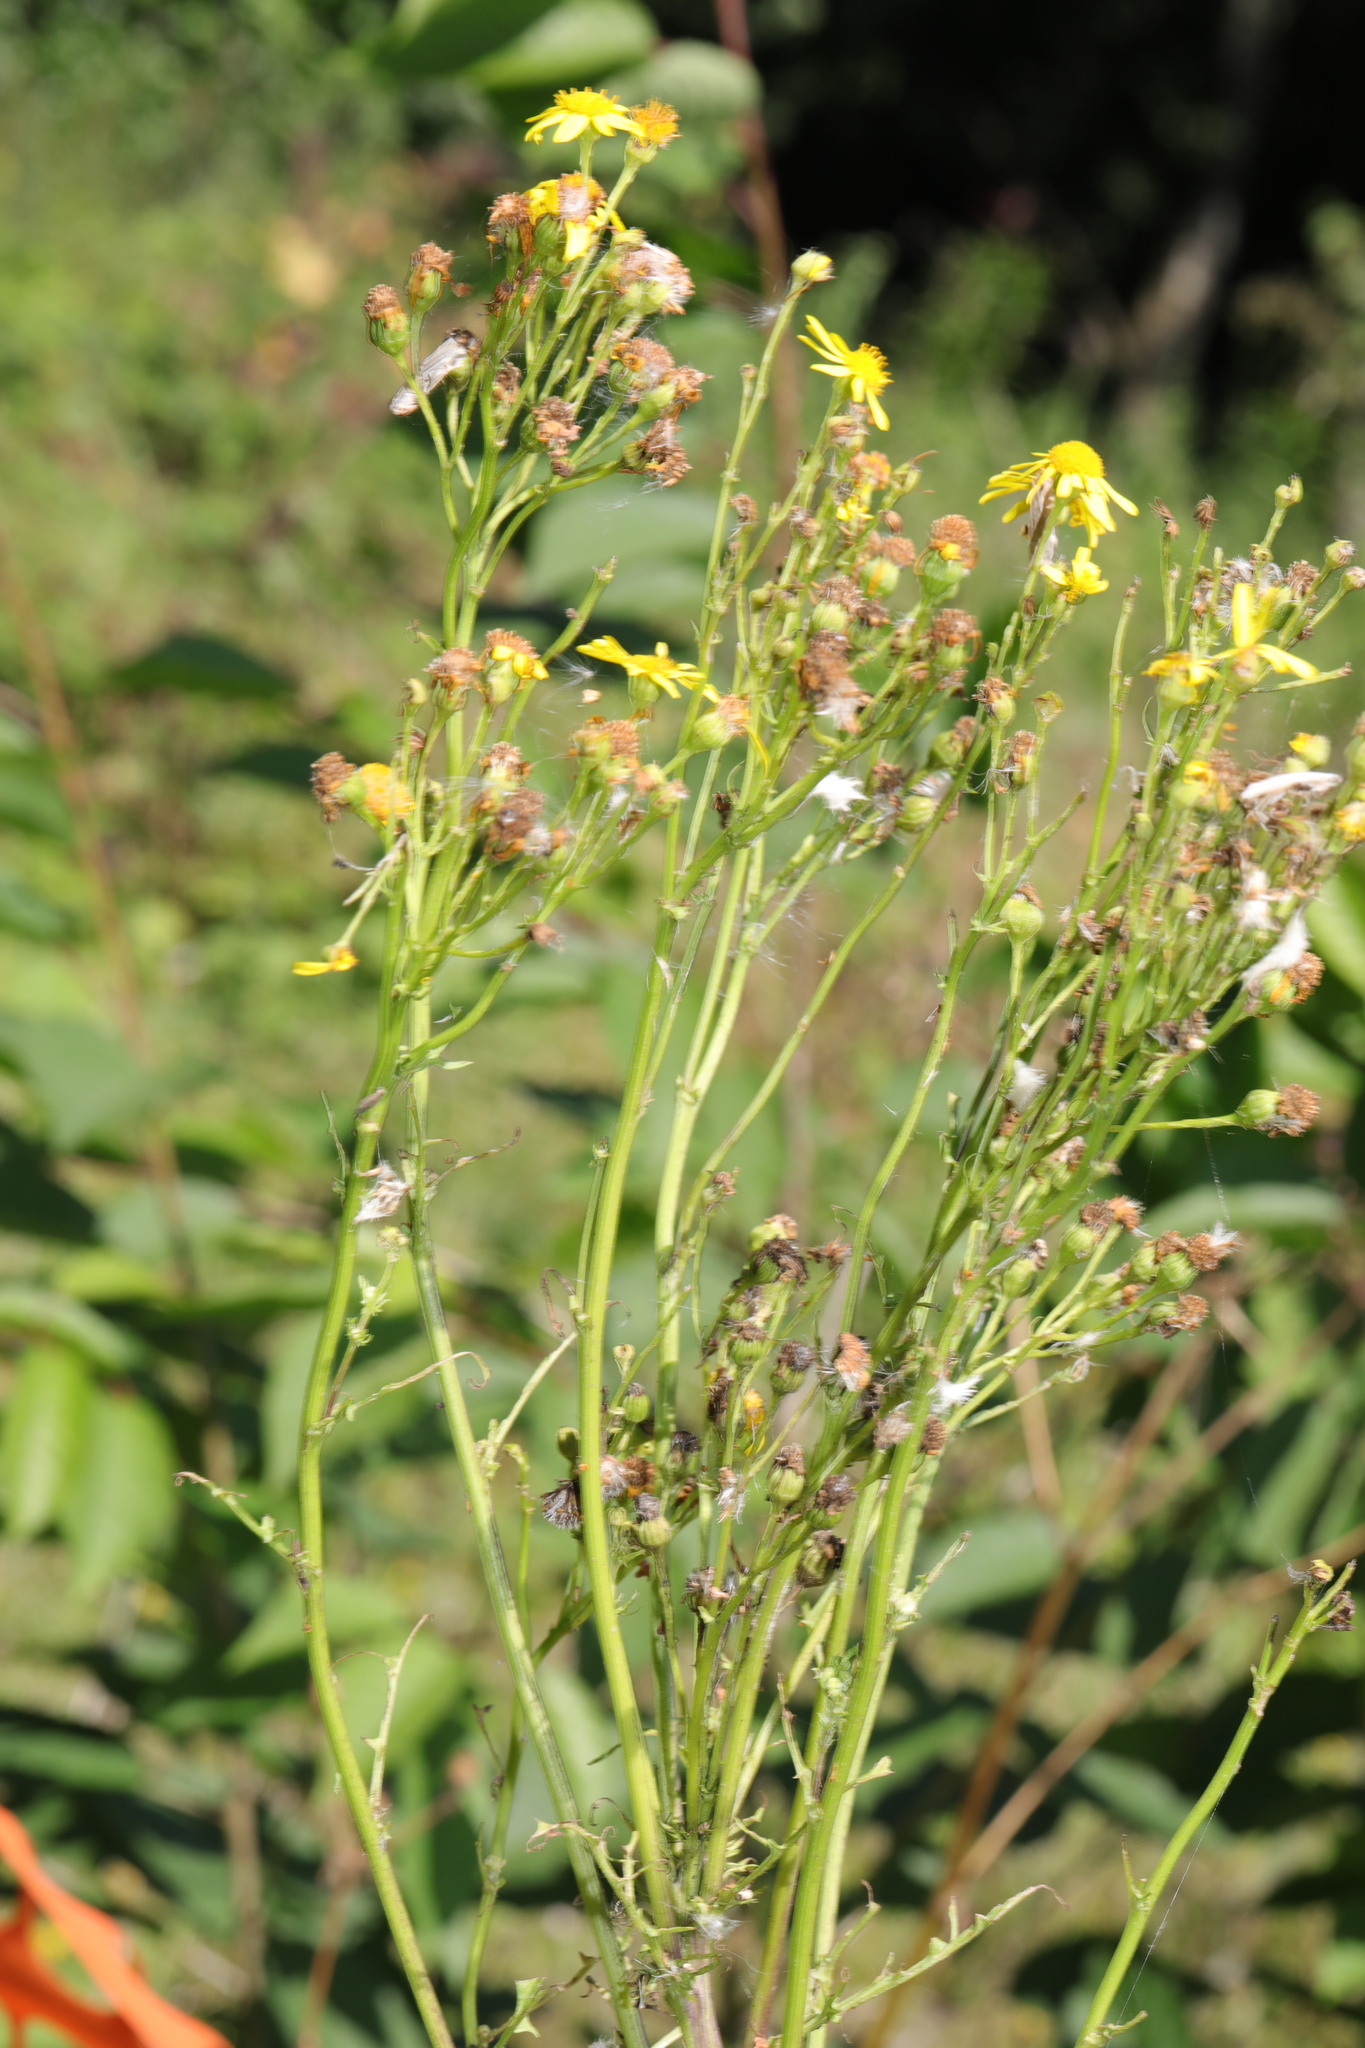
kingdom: Plantae
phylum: Tracheophyta
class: Magnoliopsida
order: Asterales
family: Asteraceae
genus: Jacobaea
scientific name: Jacobaea vulgaris
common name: Stinking willie
